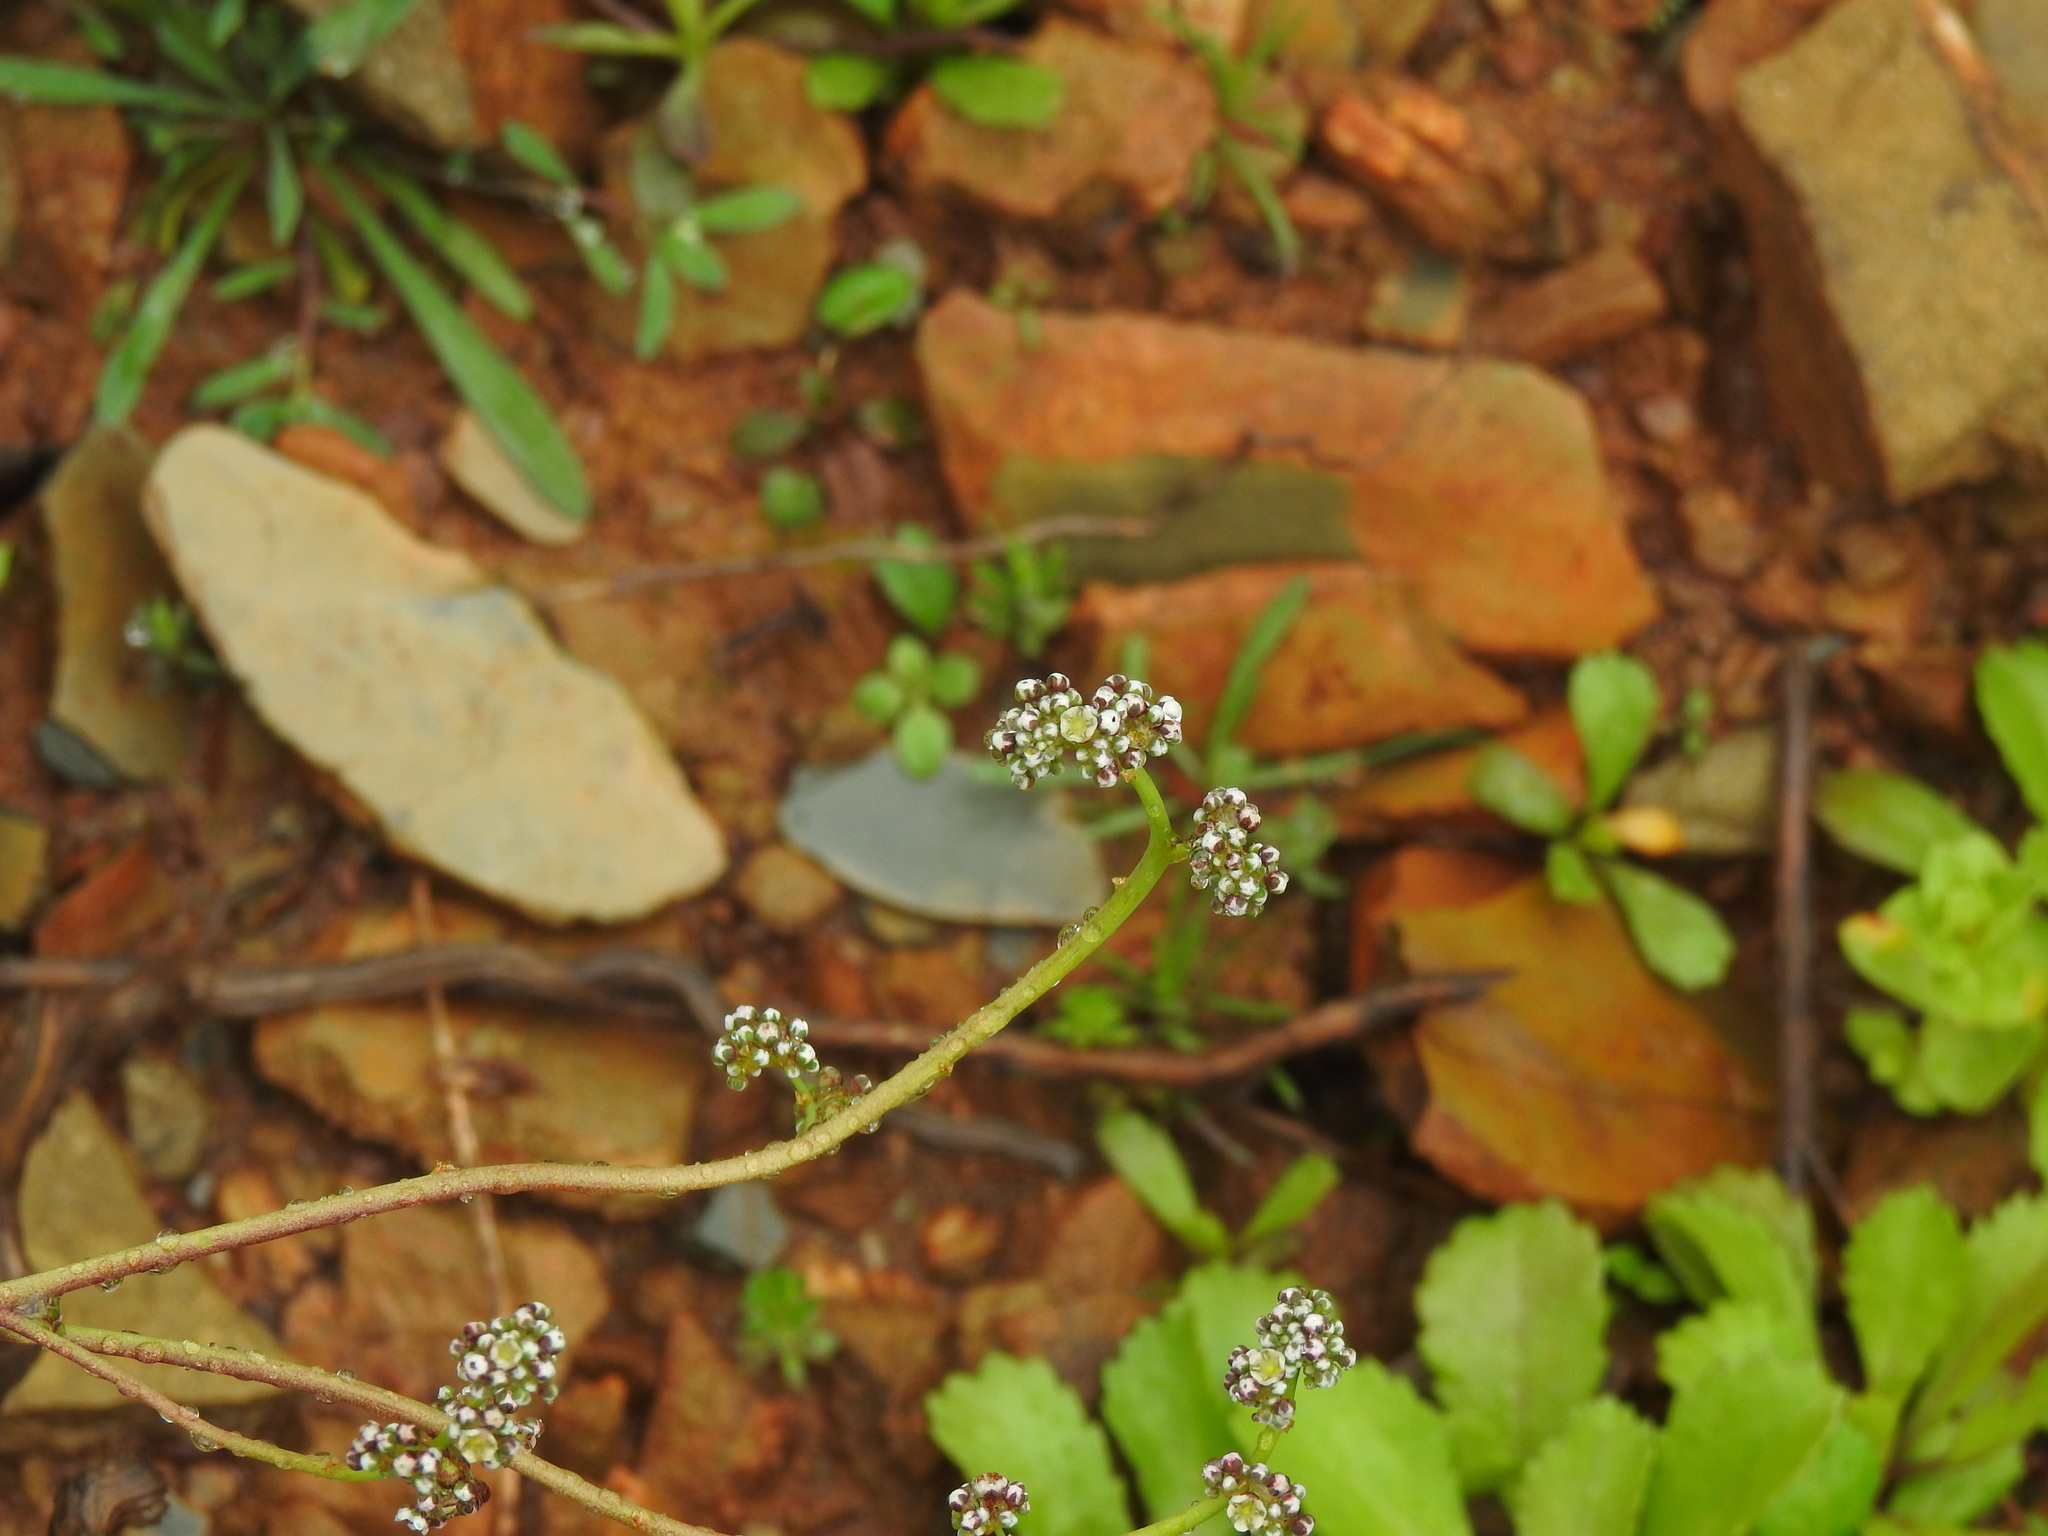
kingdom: Plantae
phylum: Tracheophyta
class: Magnoliopsida
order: Caryophyllales
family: Caryophyllaceae
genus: Corrigiola
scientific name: Corrigiola telephiifolia
